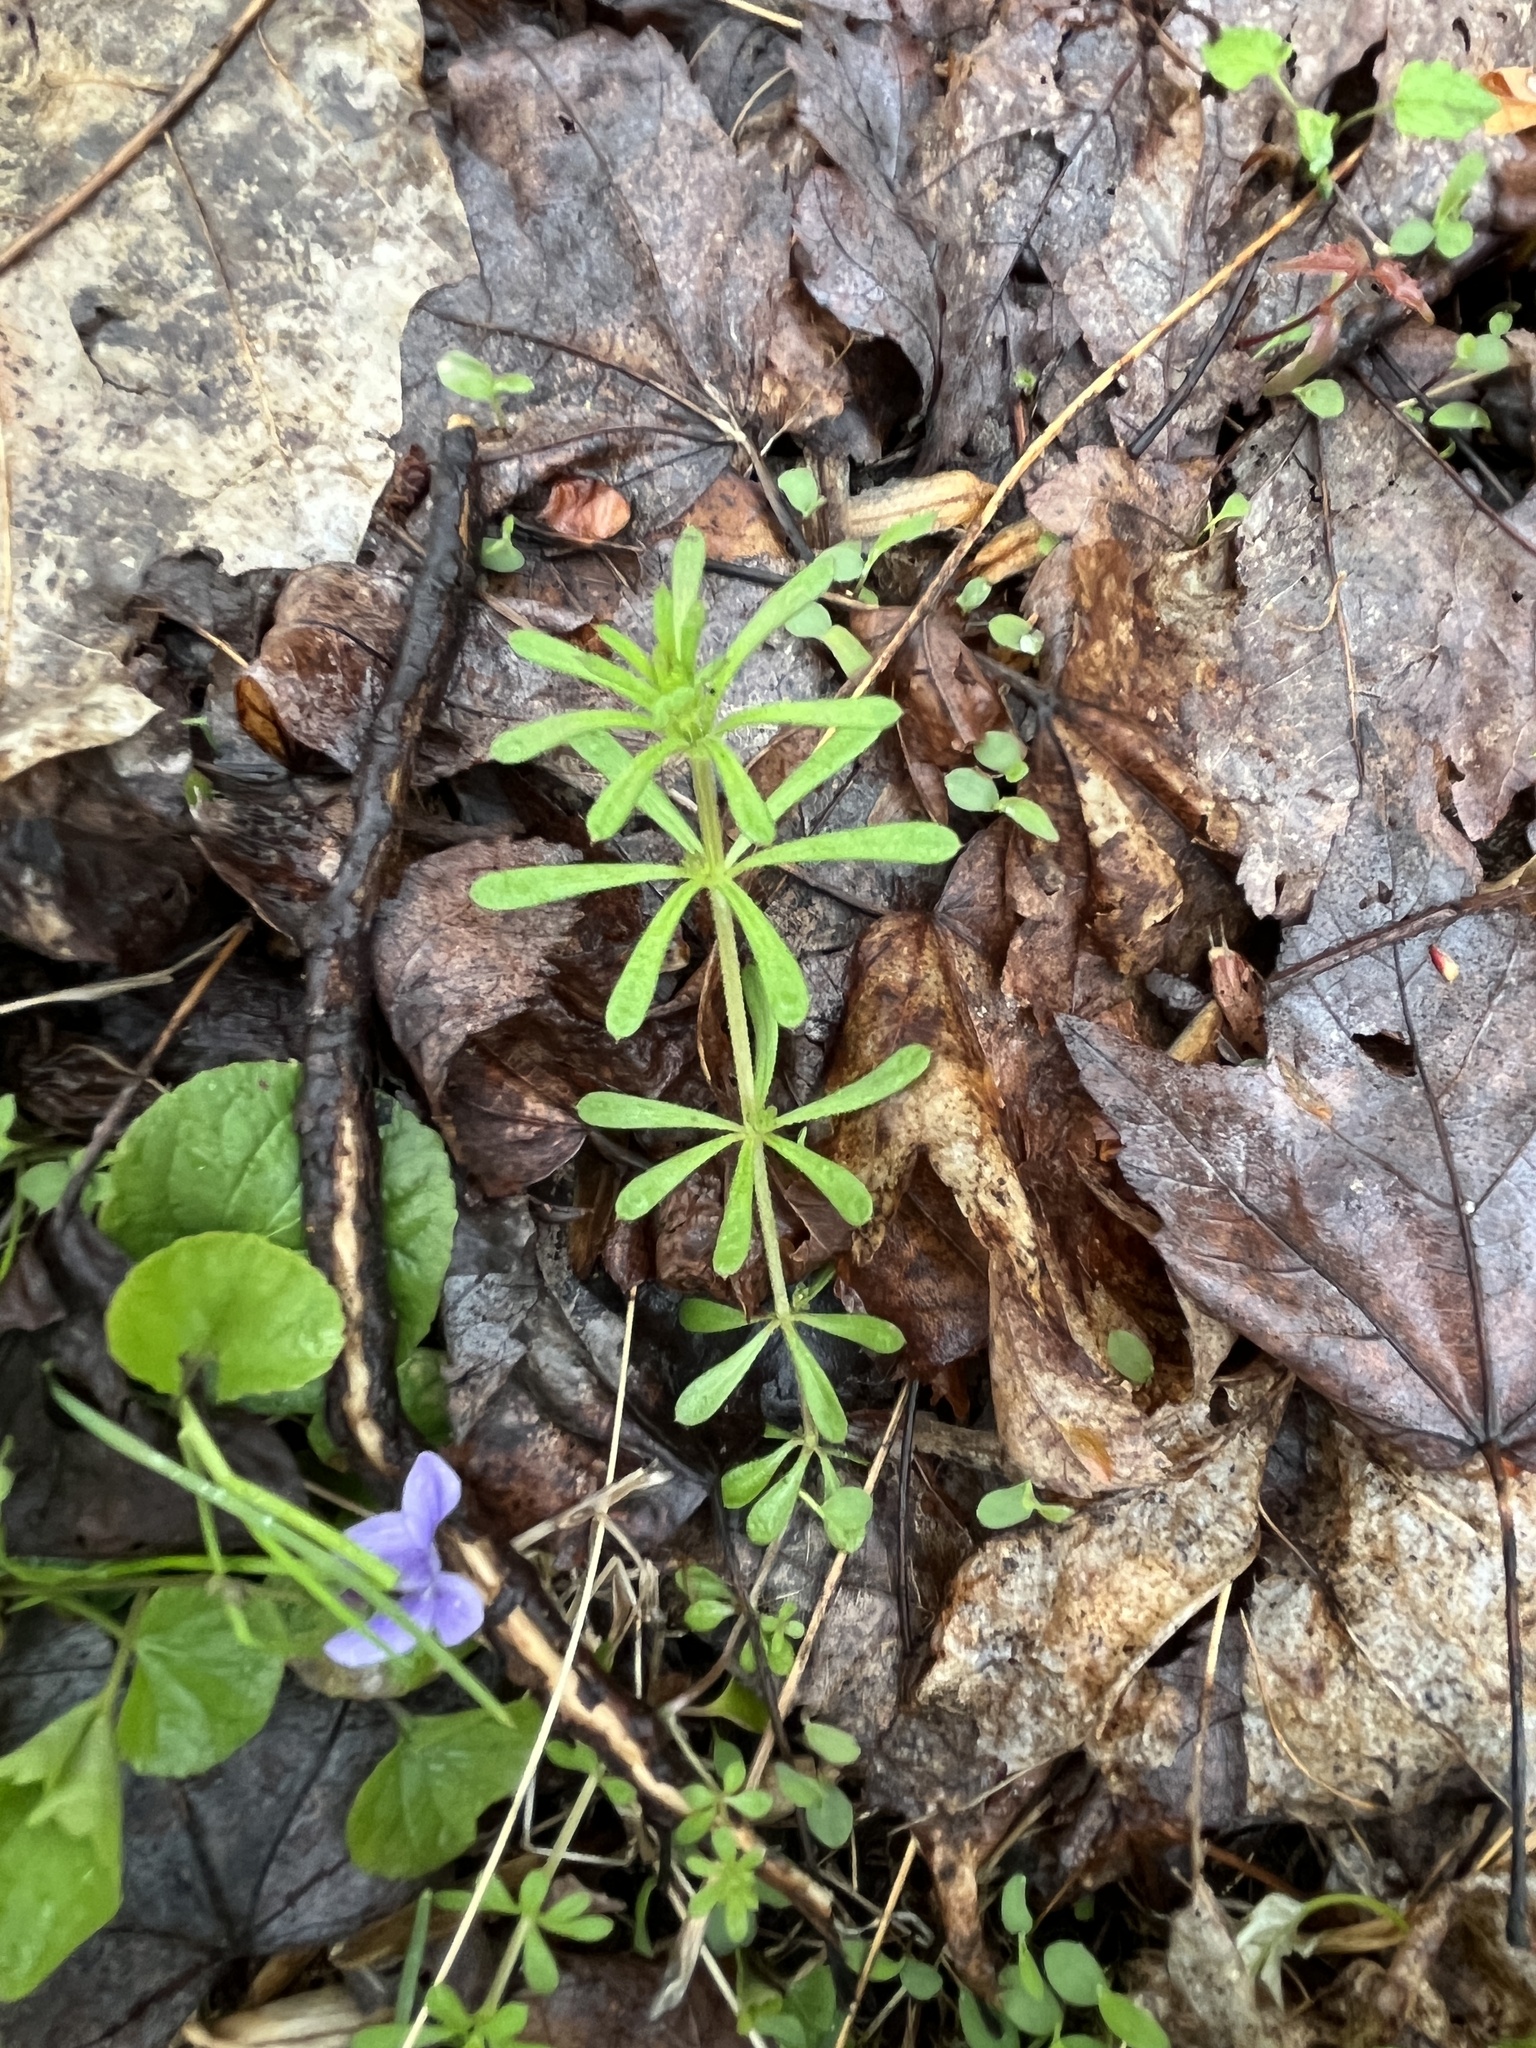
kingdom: Plantae
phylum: Tracheophyta
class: Magnoliopsida
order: Gentianales
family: Rubiaceae
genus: Galium
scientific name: Galium aparine
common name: Cleavers
